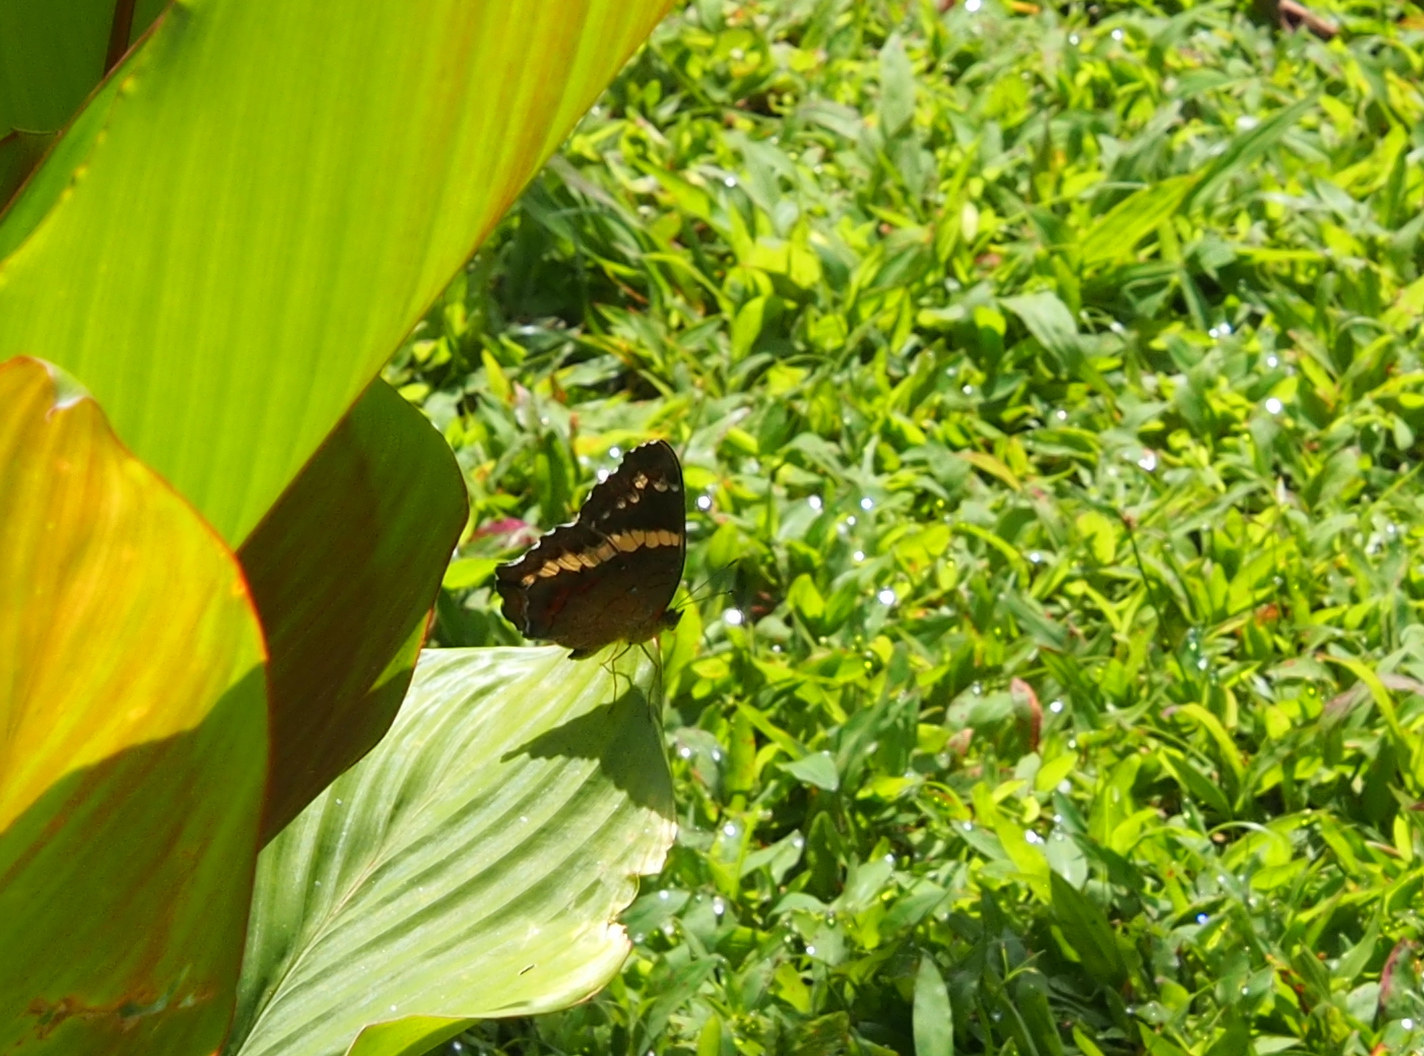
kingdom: Animalia
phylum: Arthropoda
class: Insecta
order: Lepidoptera
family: Nymphalidae
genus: Anartia
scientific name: Anartia fatima
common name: Banded peacock
